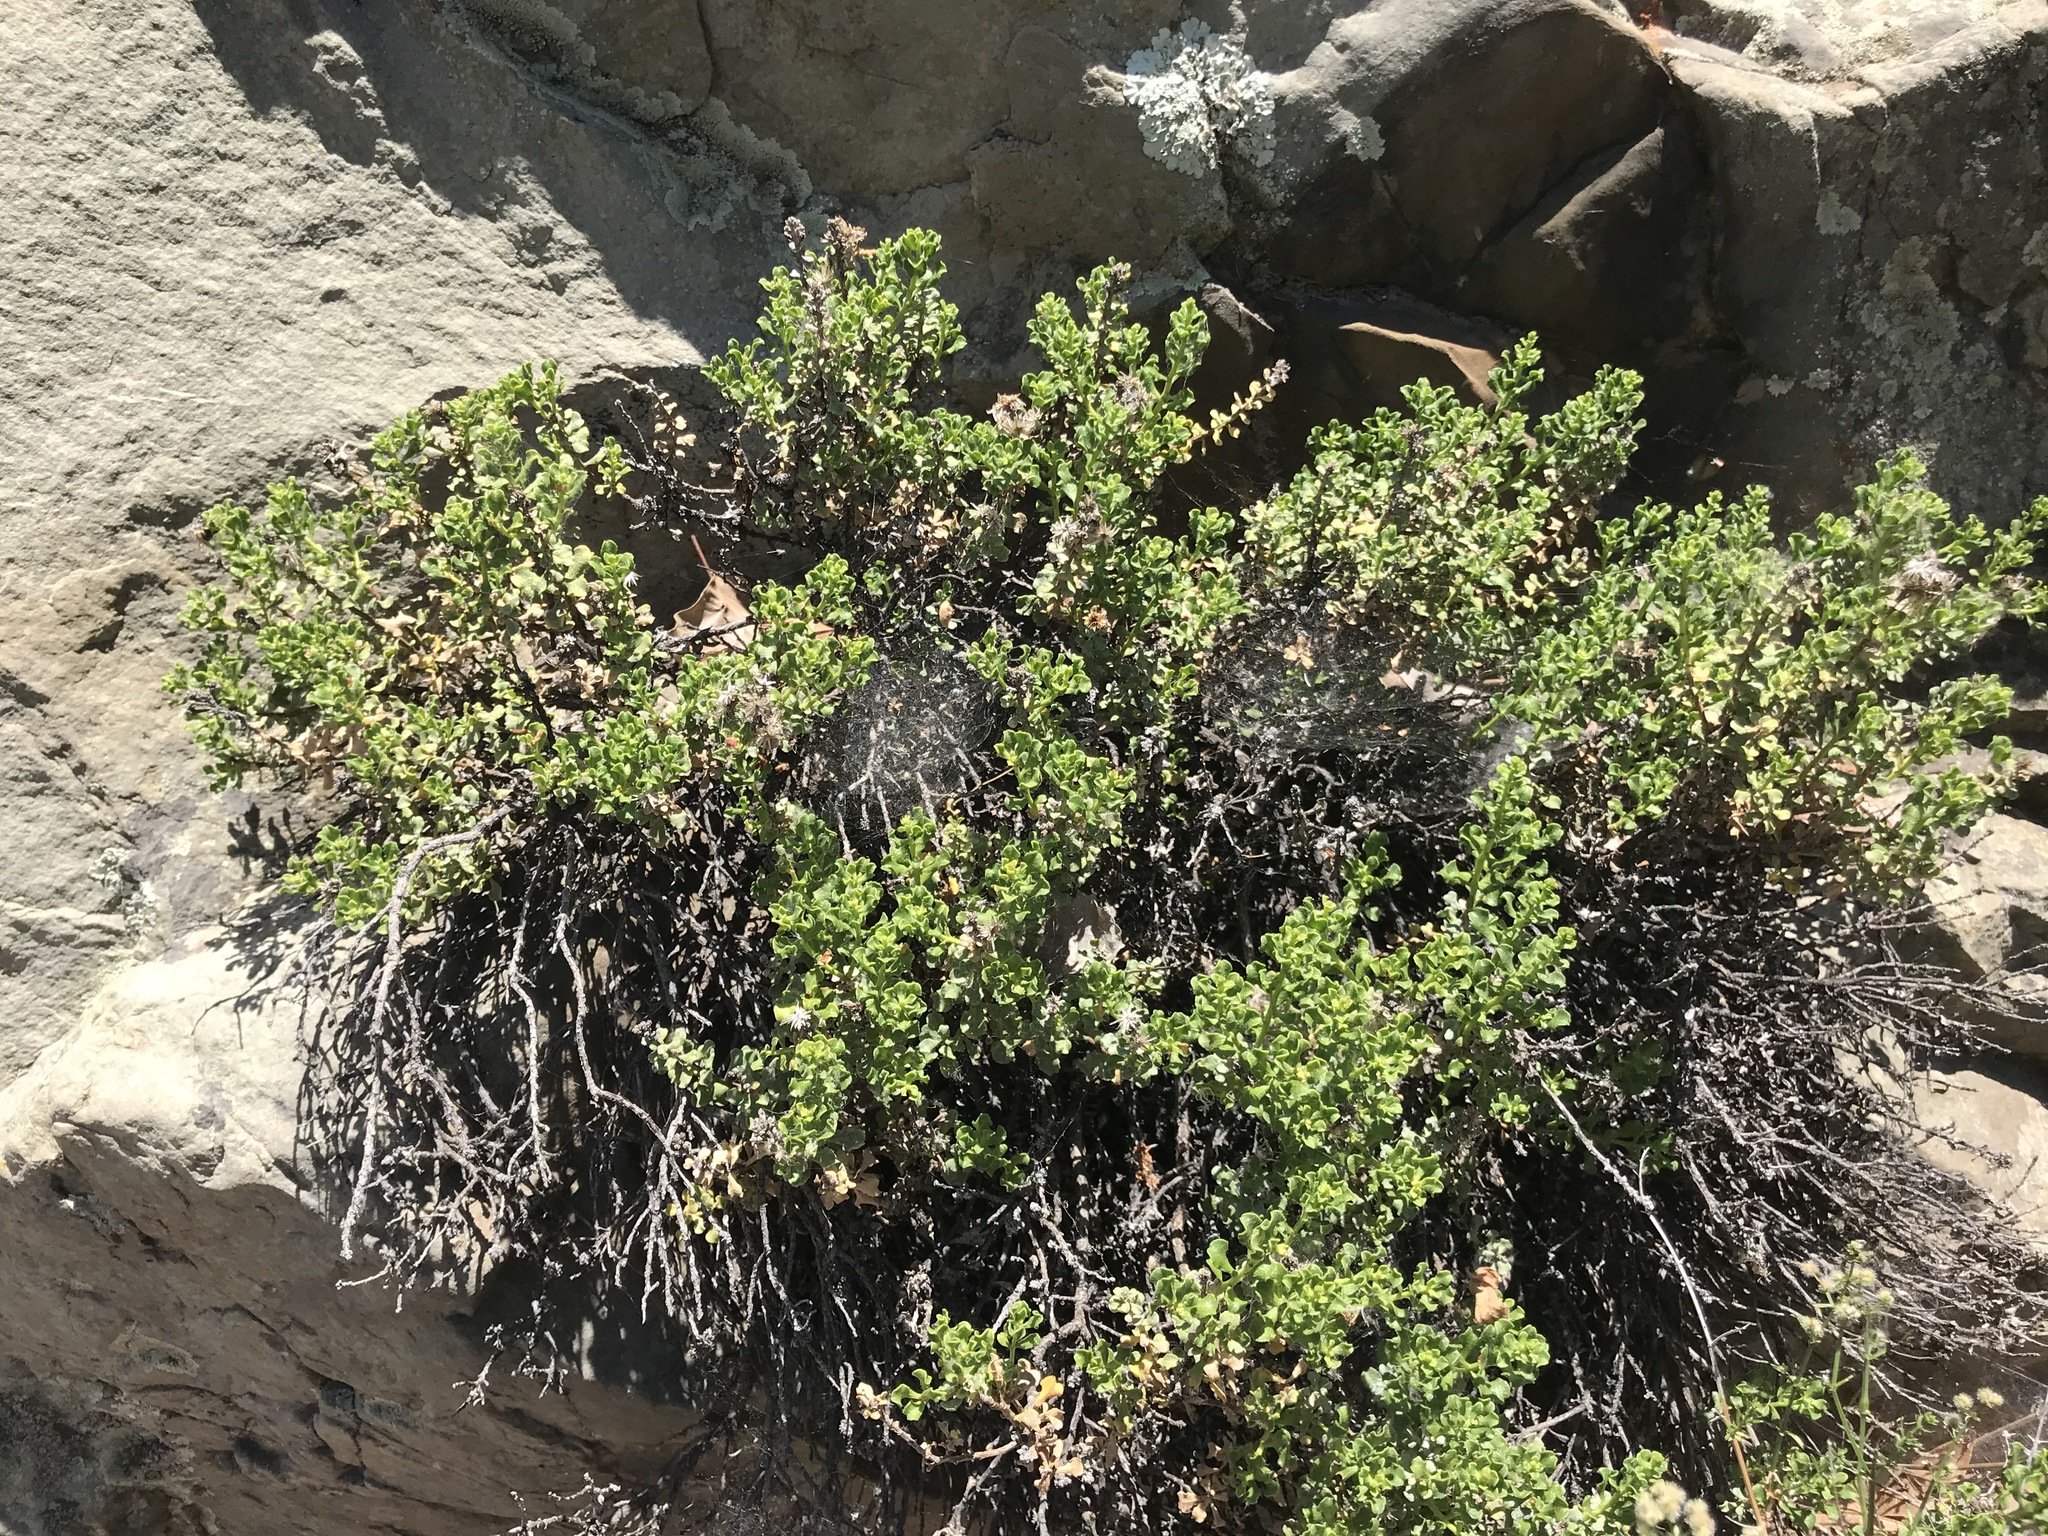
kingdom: Plantae
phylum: Tracheophyta
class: Magnoliopsida
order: Asterales
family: Asteraceae
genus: Ericameria
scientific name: Ericameria cuneata
